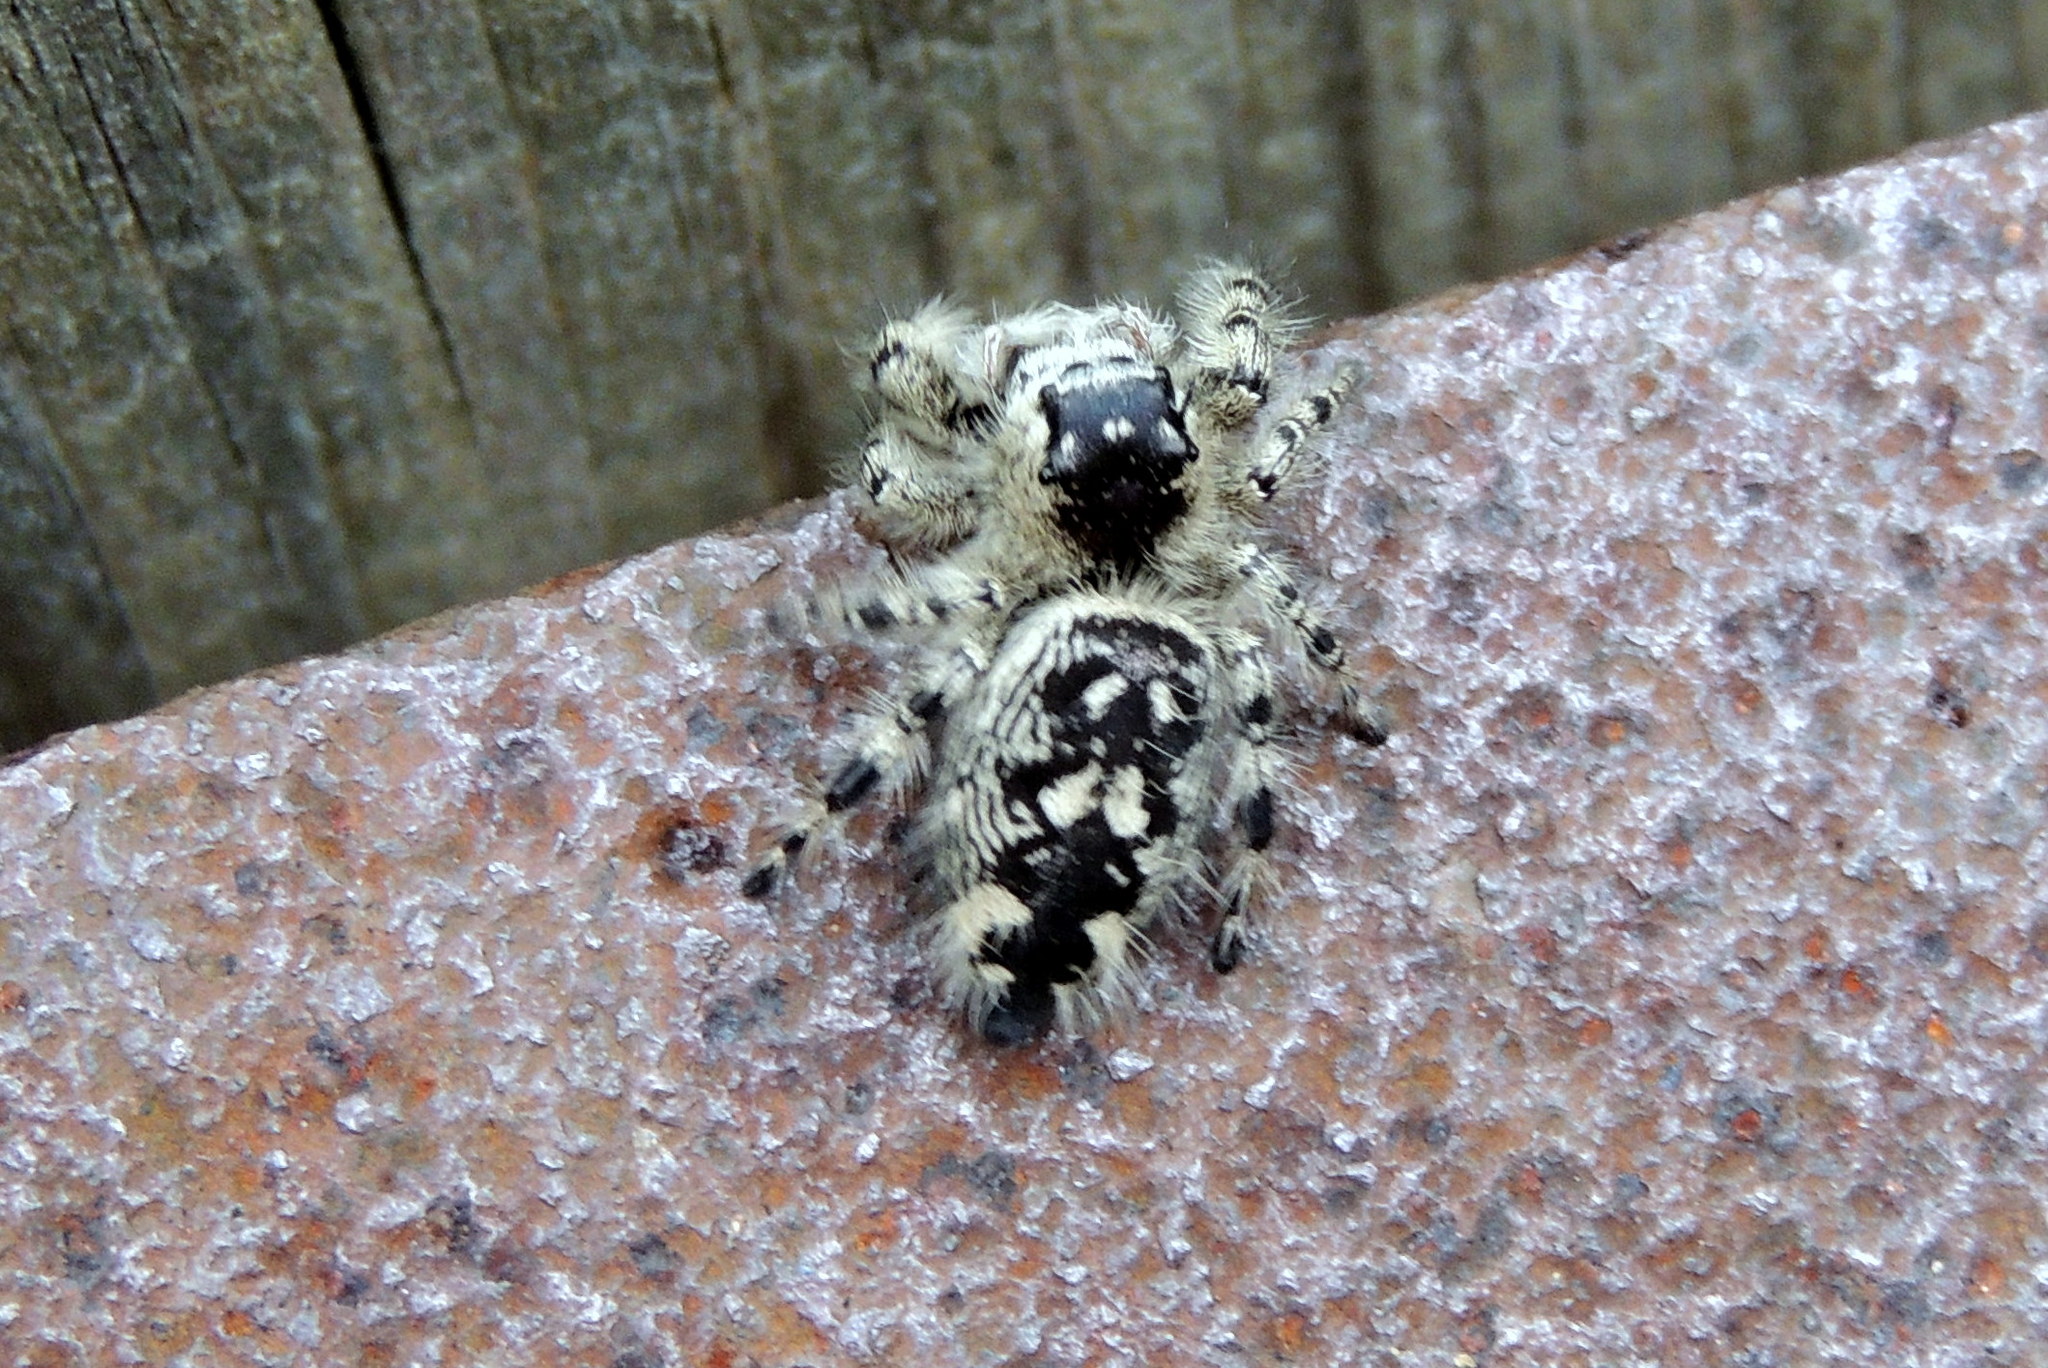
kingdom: Animalia
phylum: Arthropoda
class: Arachnida
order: Araneae
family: Salticidae
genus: Phidippus
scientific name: Phidippus otiosus
